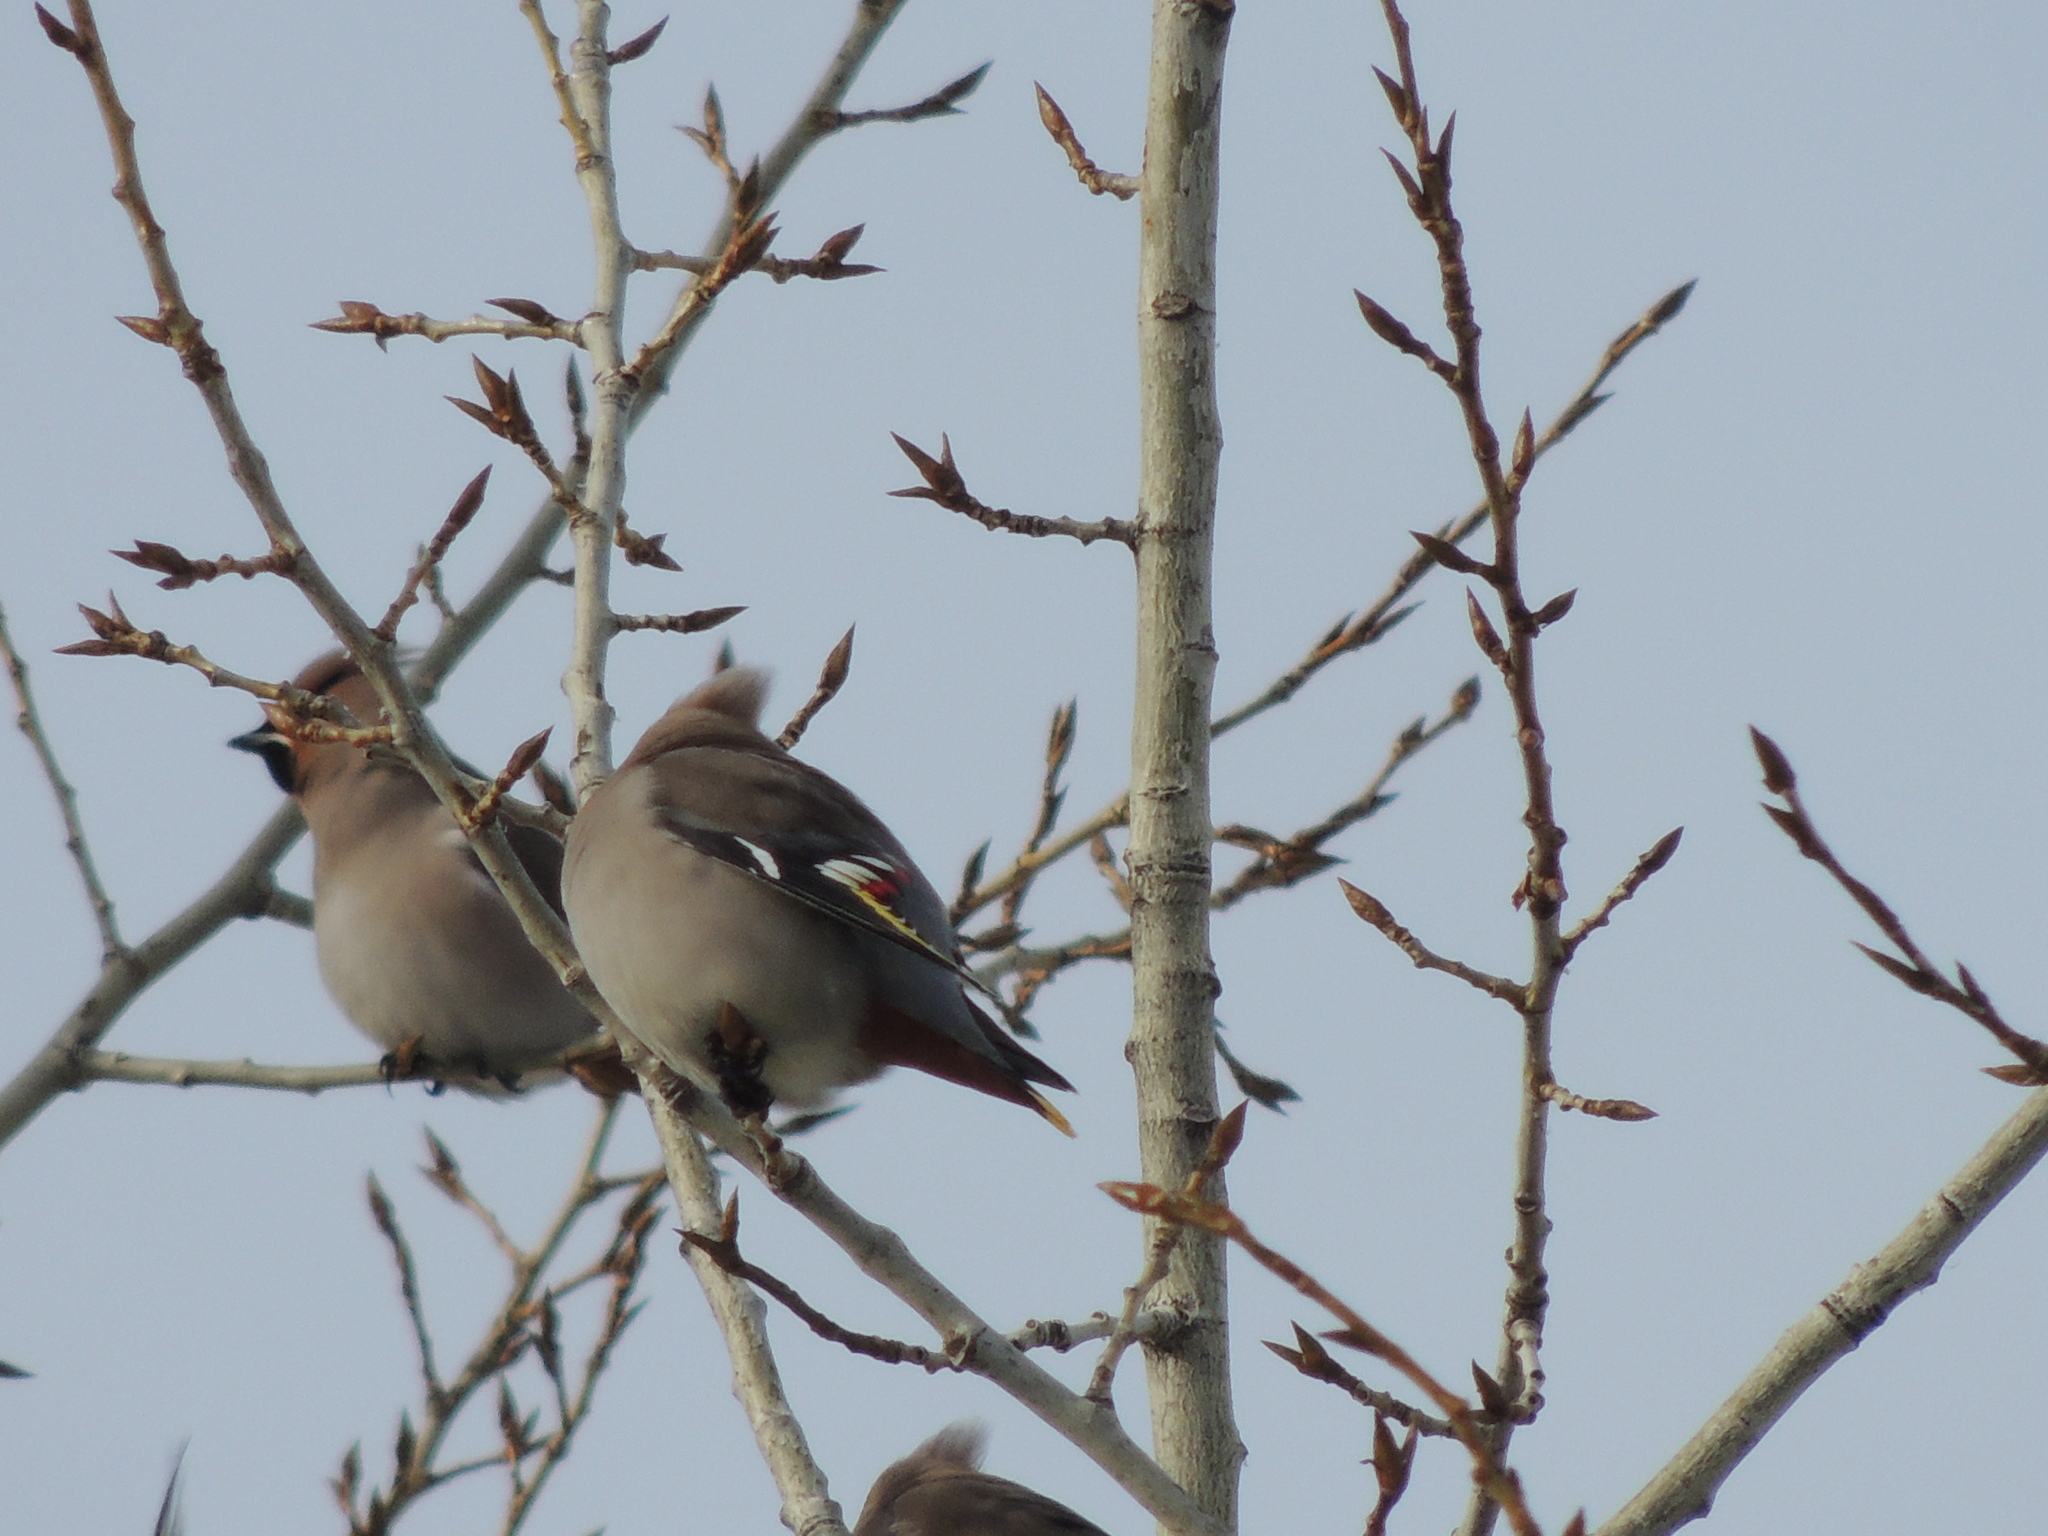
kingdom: Animalia
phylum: Chordata
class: Aves
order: Passeriformes
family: Bombycillidae
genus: Bombycilla
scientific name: Bombycilla garrulus
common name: Bohemian waxwing
